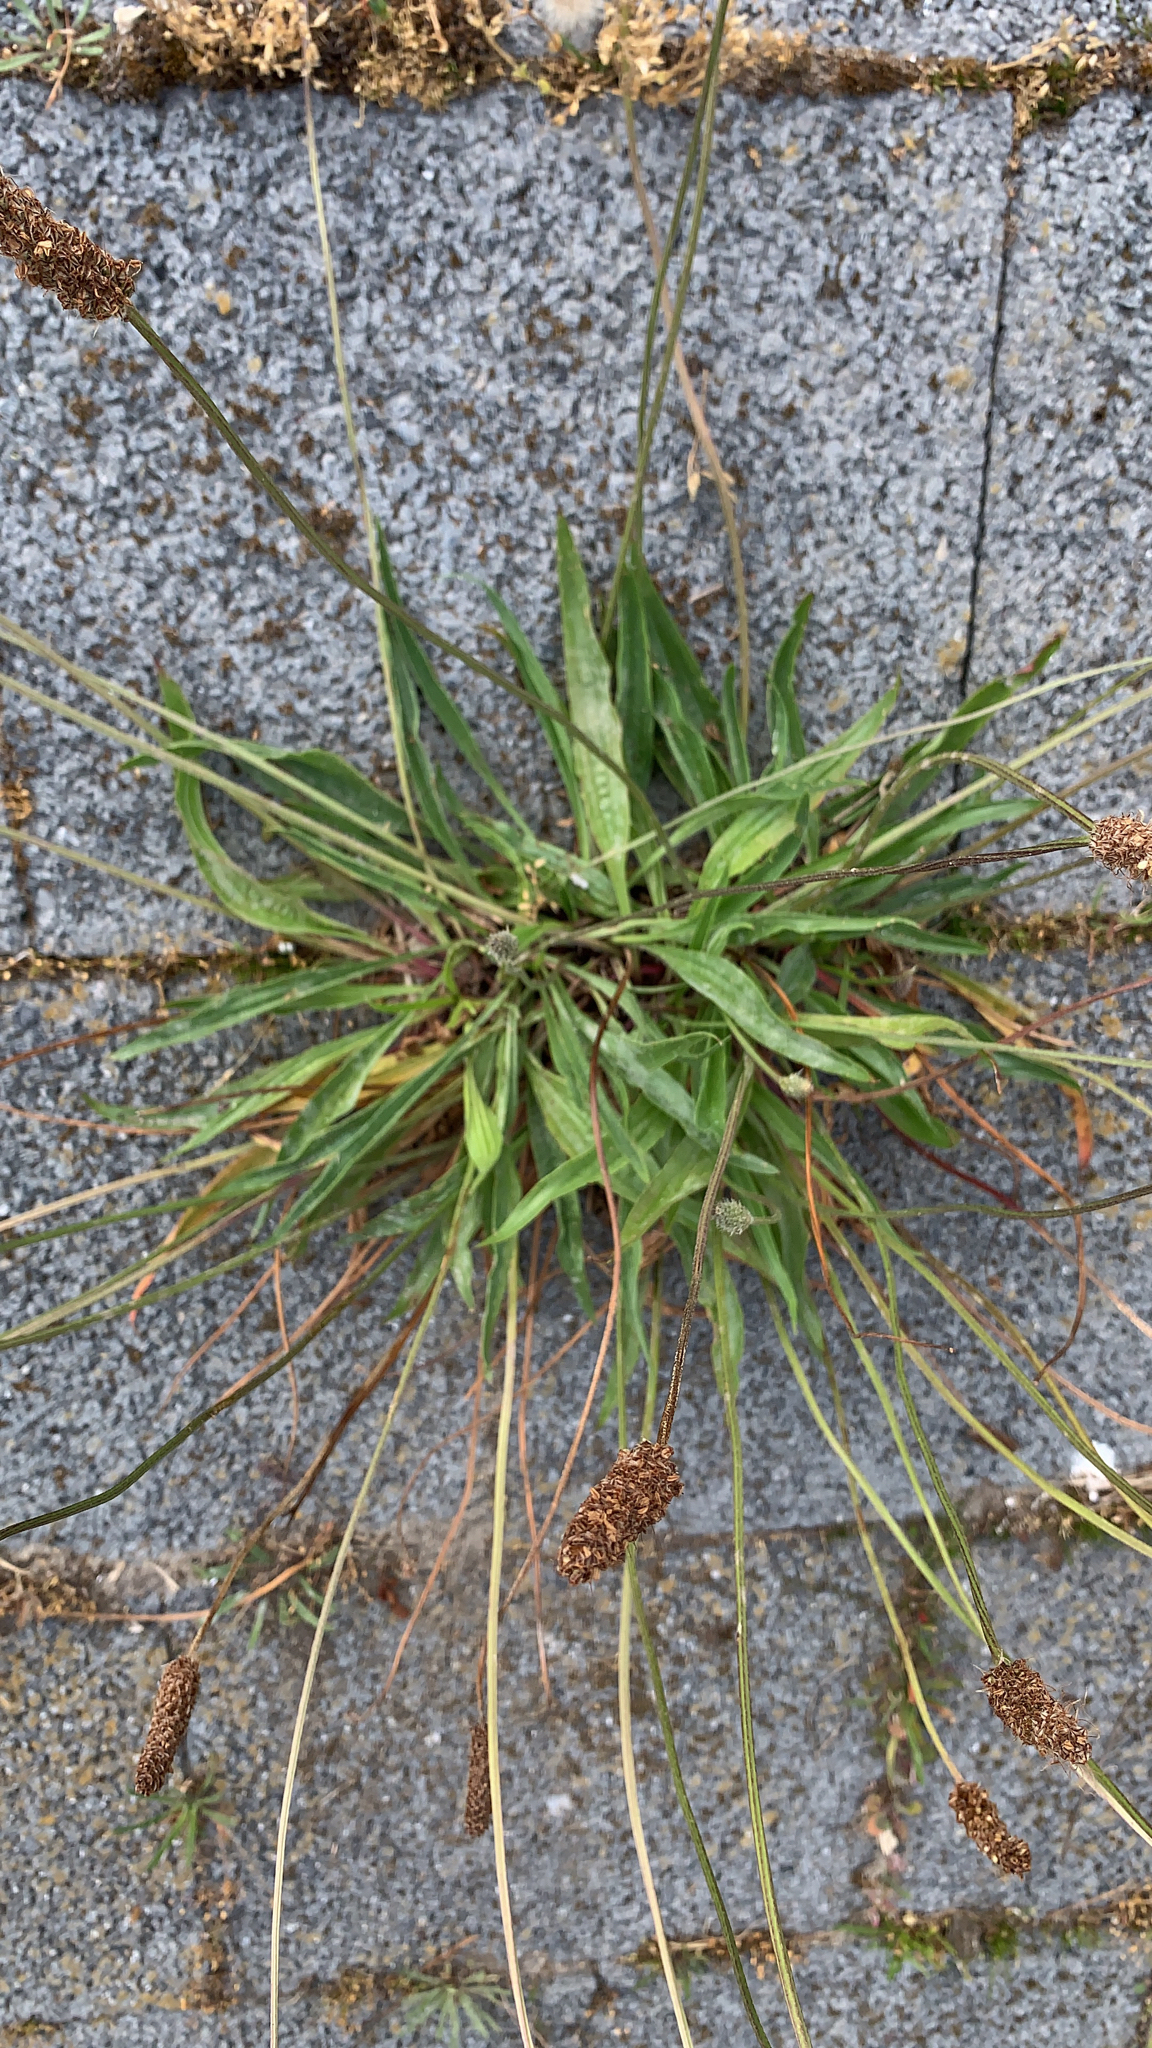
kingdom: Plantae
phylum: Tracheophyta
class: Magnoliopsida
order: Lamiales
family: Plantaginaceae
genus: Plantago
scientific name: Plantago lanceolata
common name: Ribwort plantain
